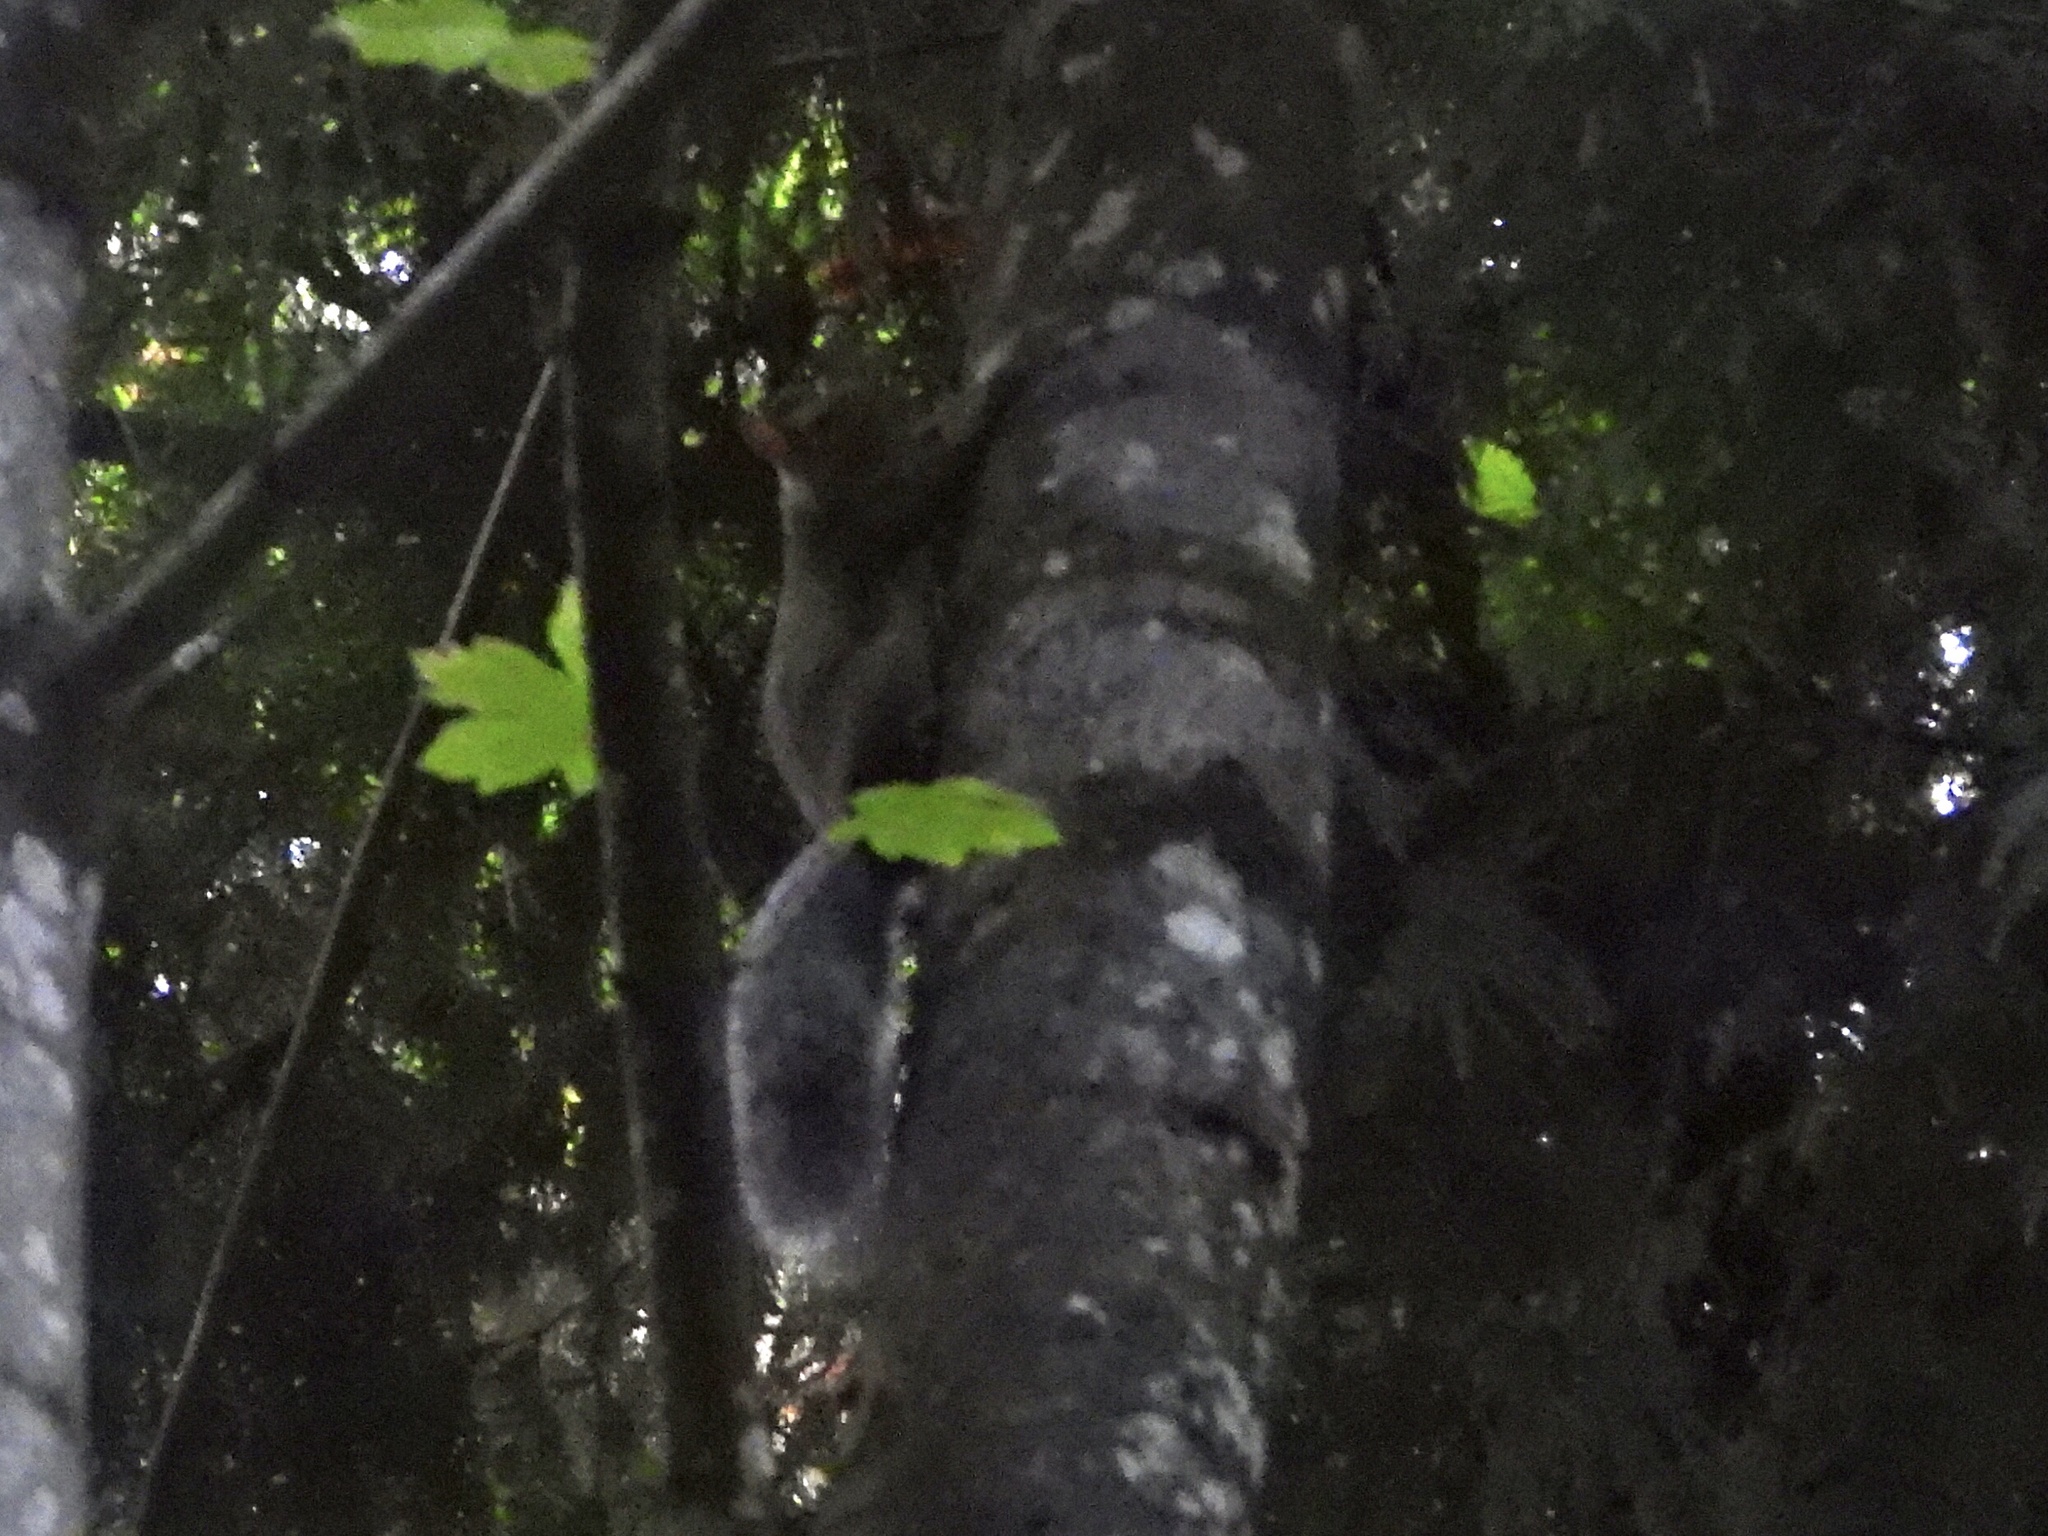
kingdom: Animalia
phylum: Chordata
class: Mammalia
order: Rodentia
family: Sciuridae
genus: Sciurus
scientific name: Sciurus carolinensis
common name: Eastern gray squirrel
